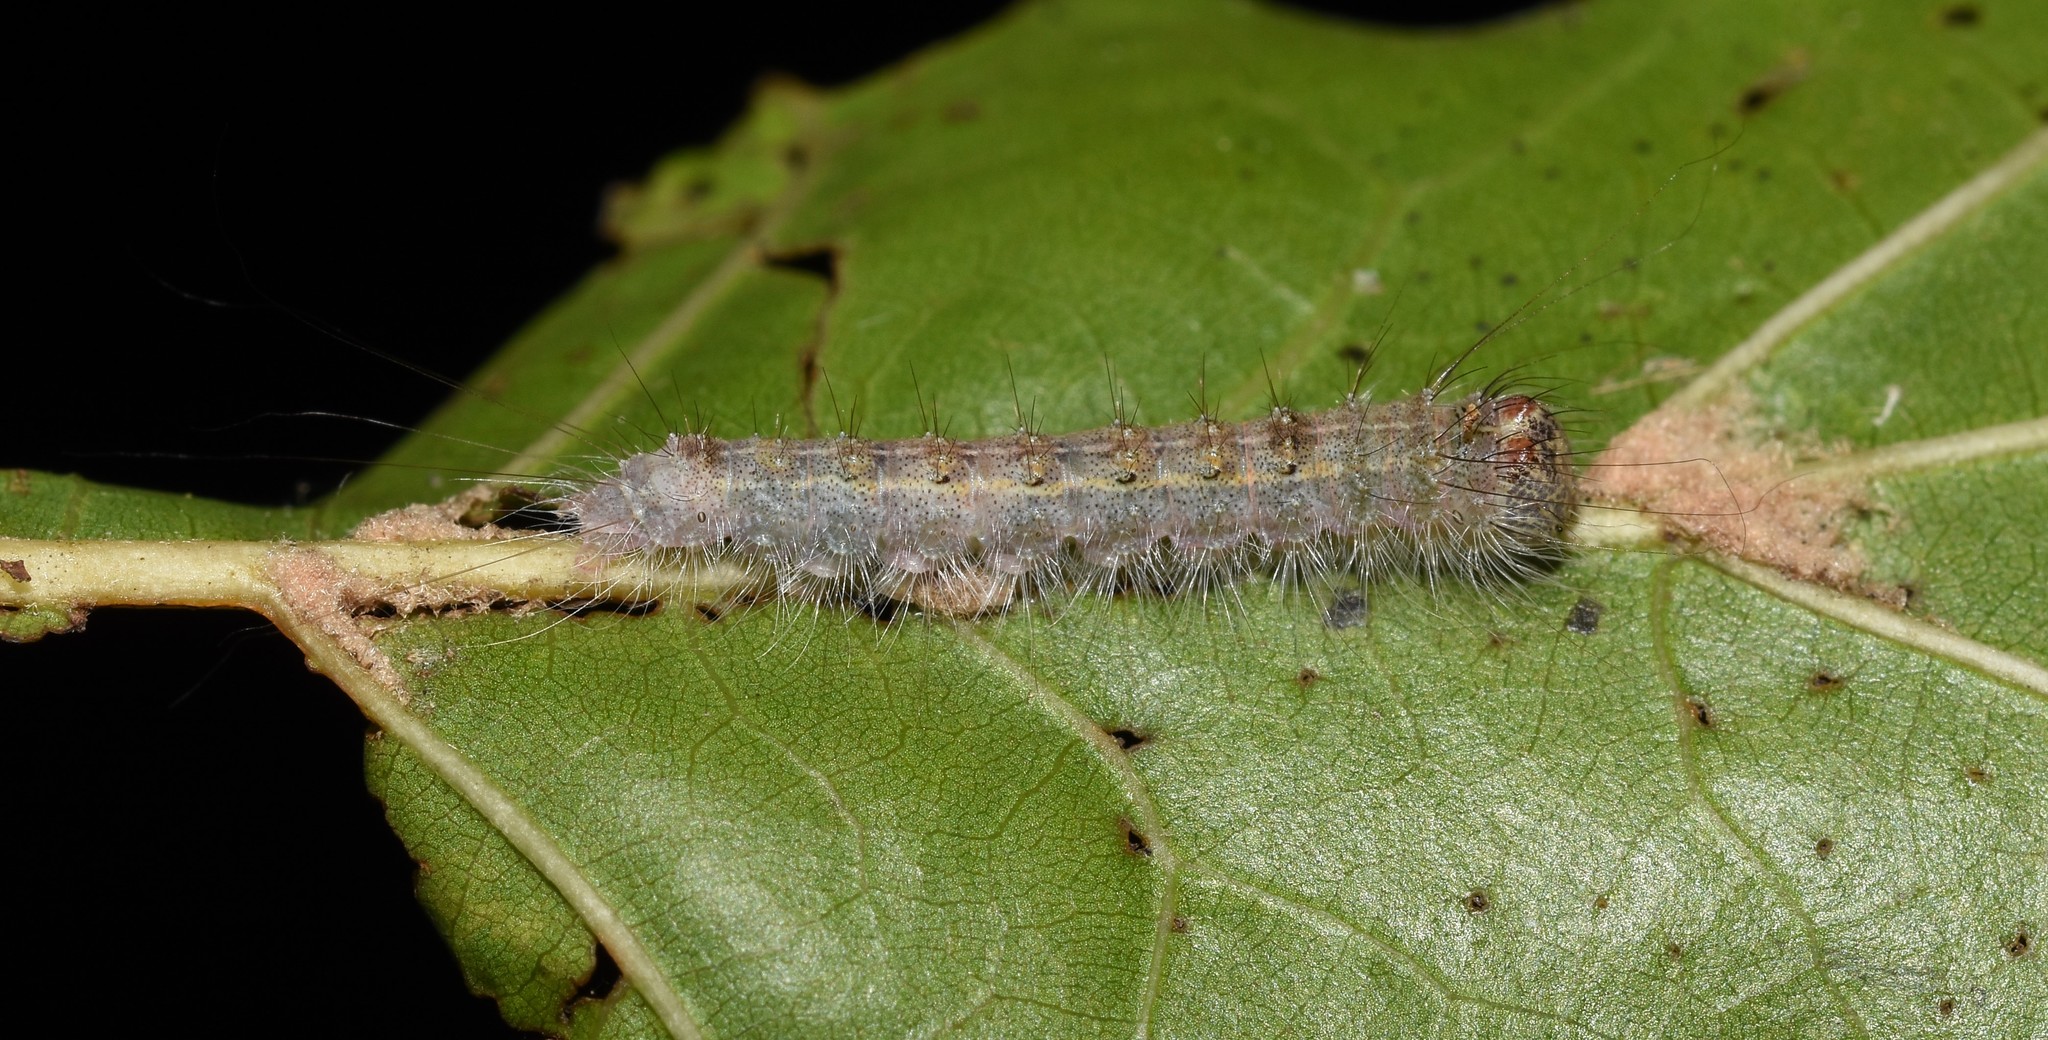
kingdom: Animalia
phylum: Arthropoda
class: Insecta
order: Lepidoptera
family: Noctuidae
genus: Acronicta
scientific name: Acronicta lobeliae
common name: Greater oak dagger
